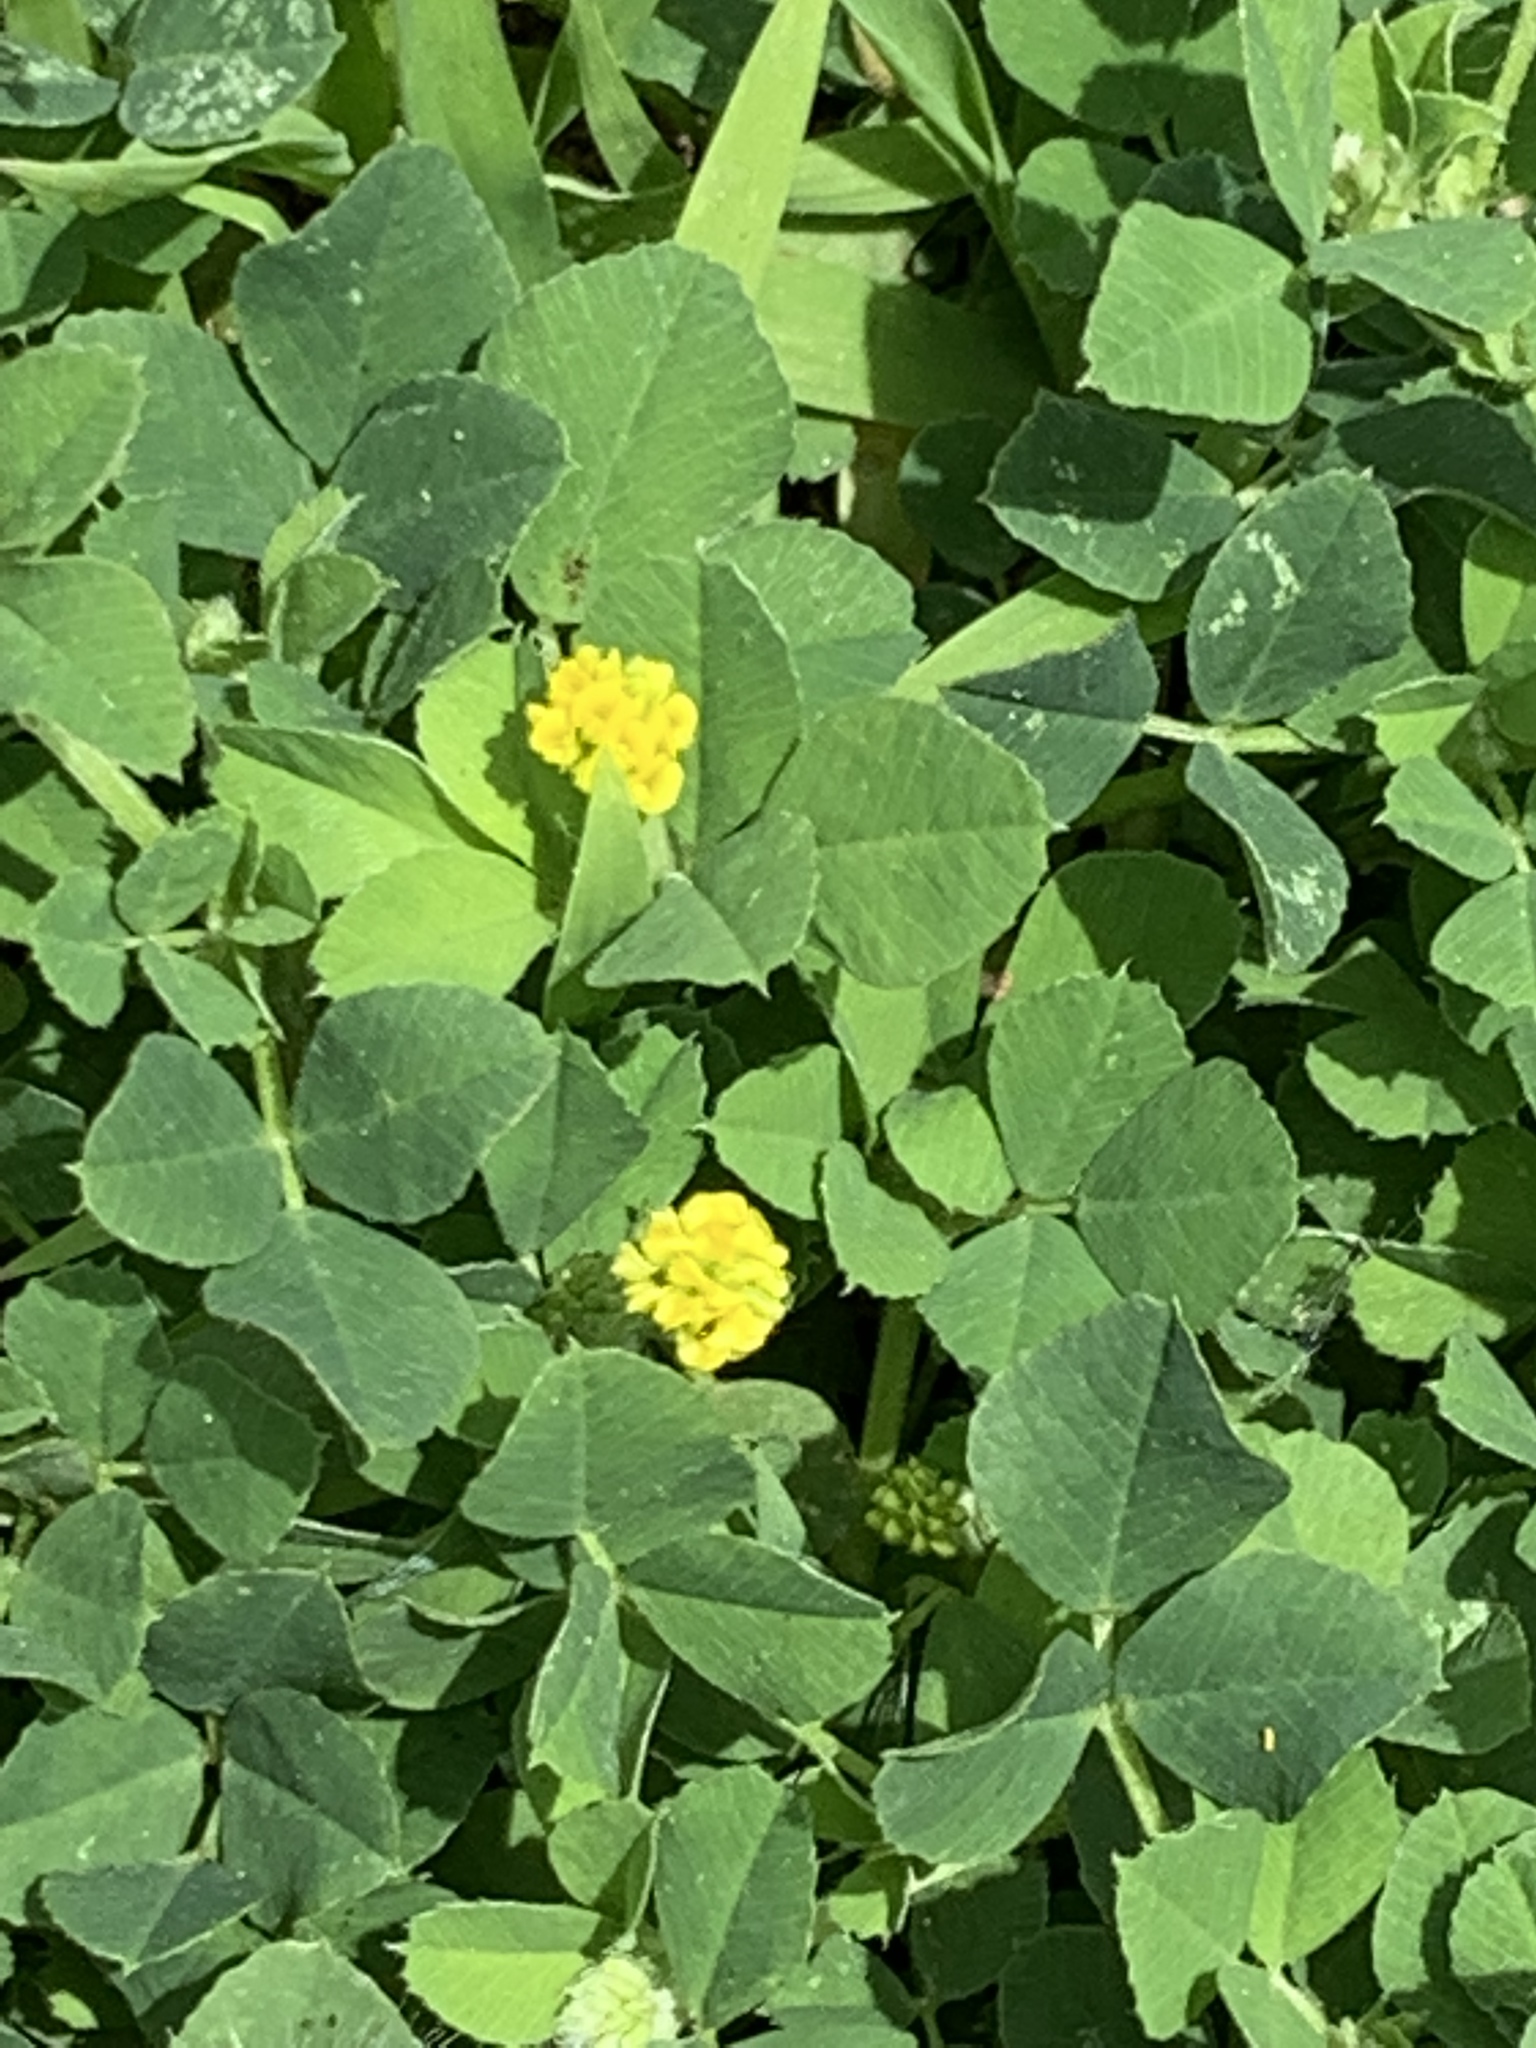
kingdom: Plantae
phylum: Tracheophyta
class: Magnoliopsida
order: Fabales
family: Fabaceae
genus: Medicago
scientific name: Medicago lupulina
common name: Black medick
